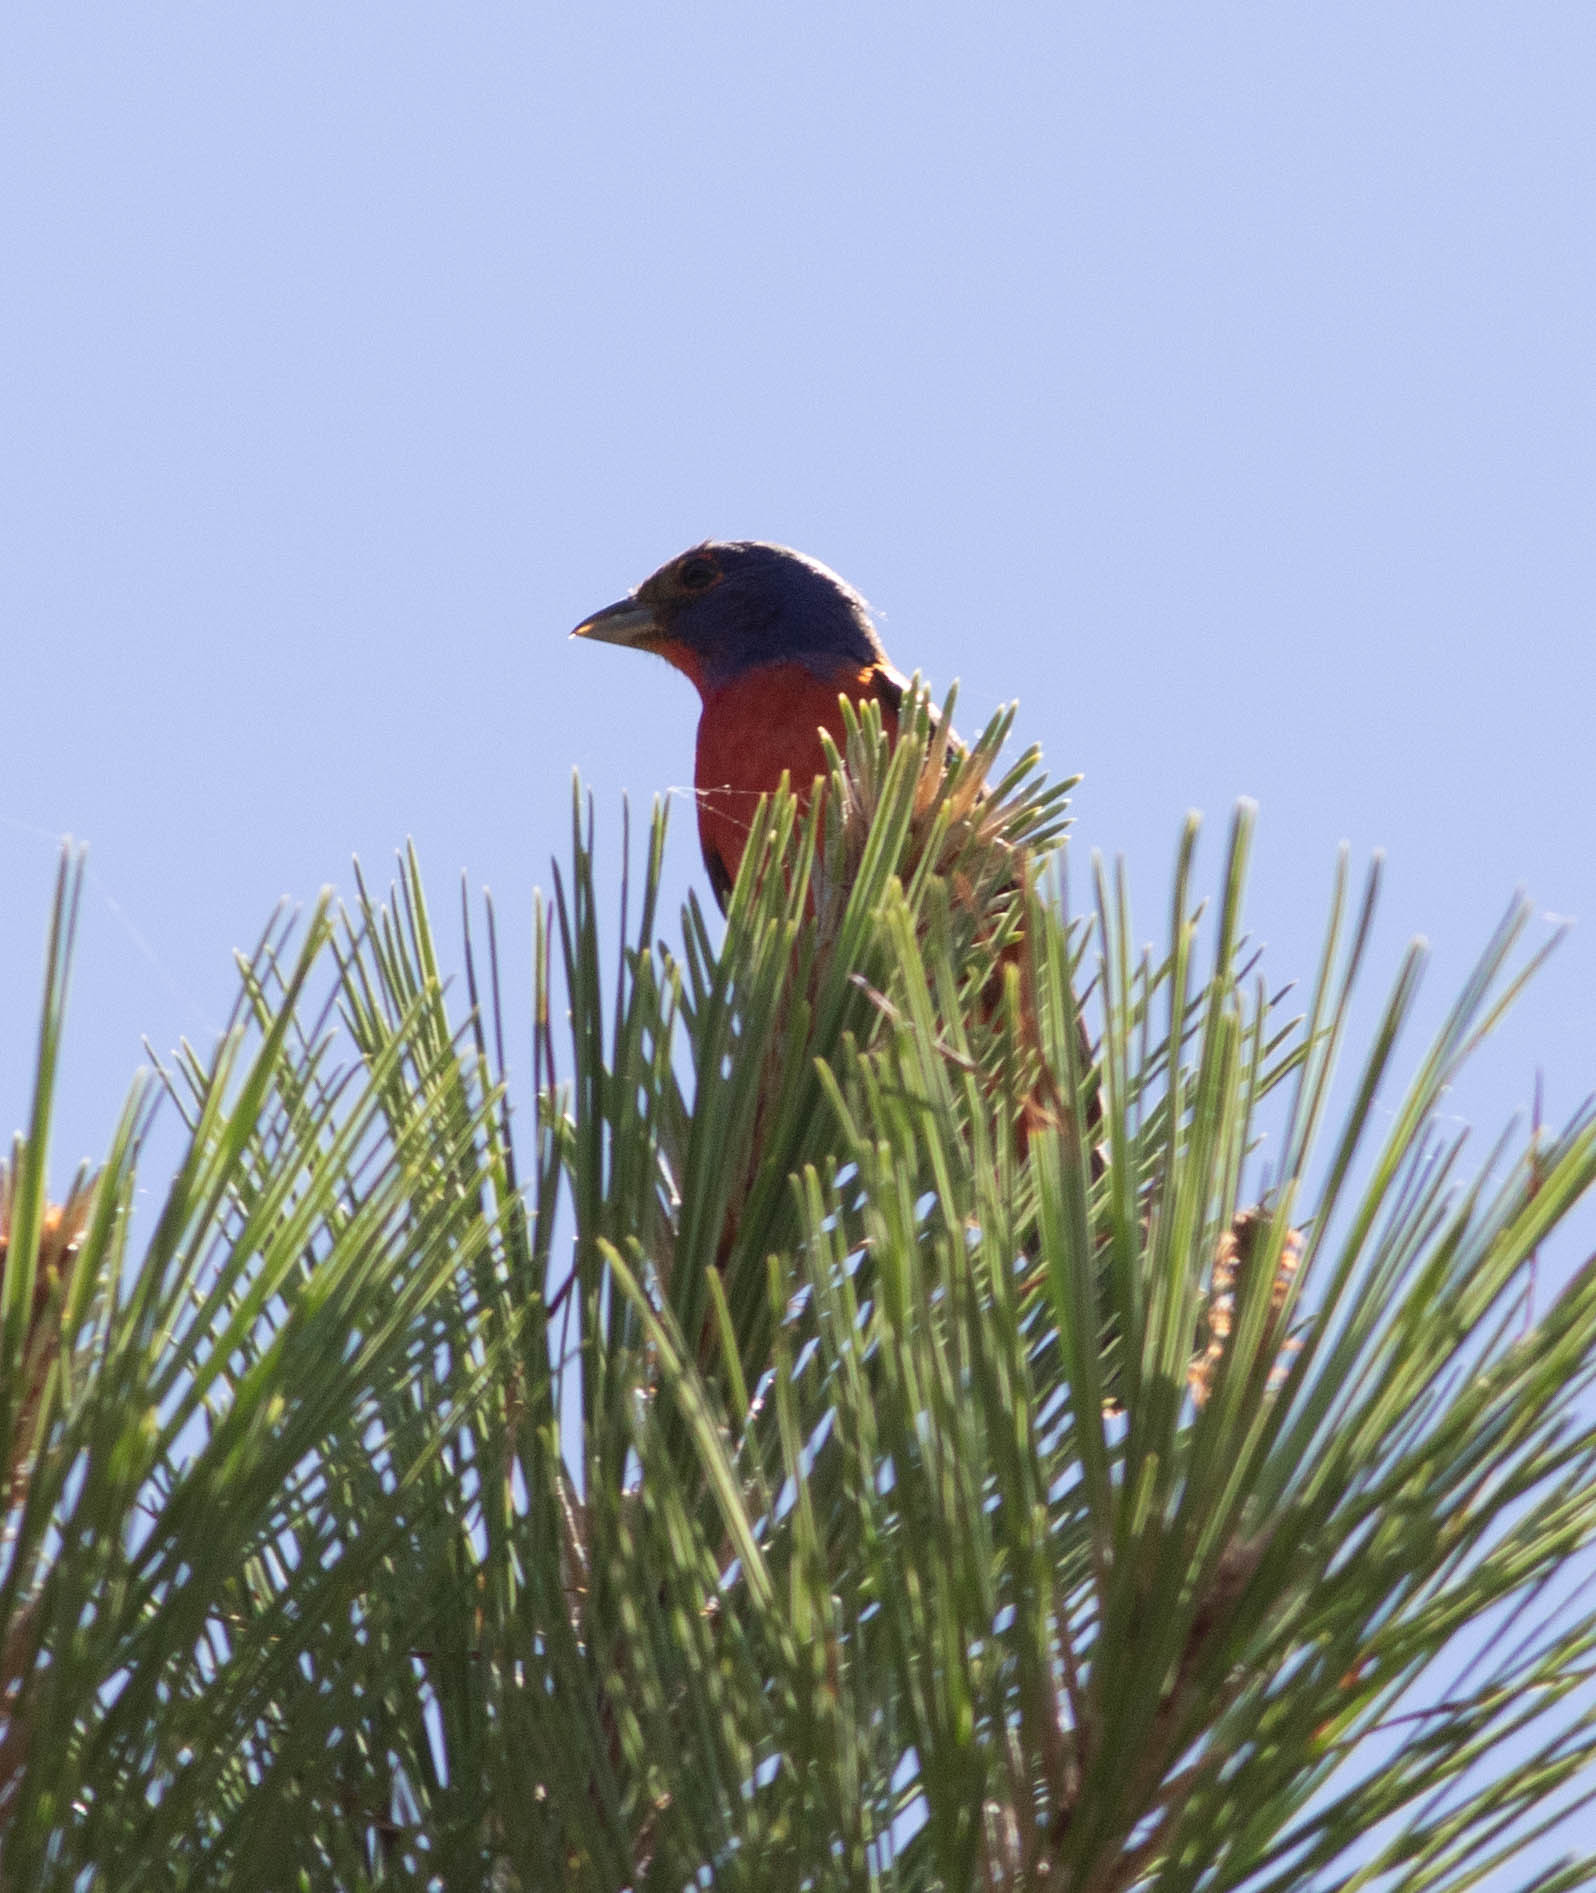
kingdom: Animalia
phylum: Chordata
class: Aves
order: Passeriformes
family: Cardinalidae
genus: Passerina
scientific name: Passerina ciris
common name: Painted bunting
